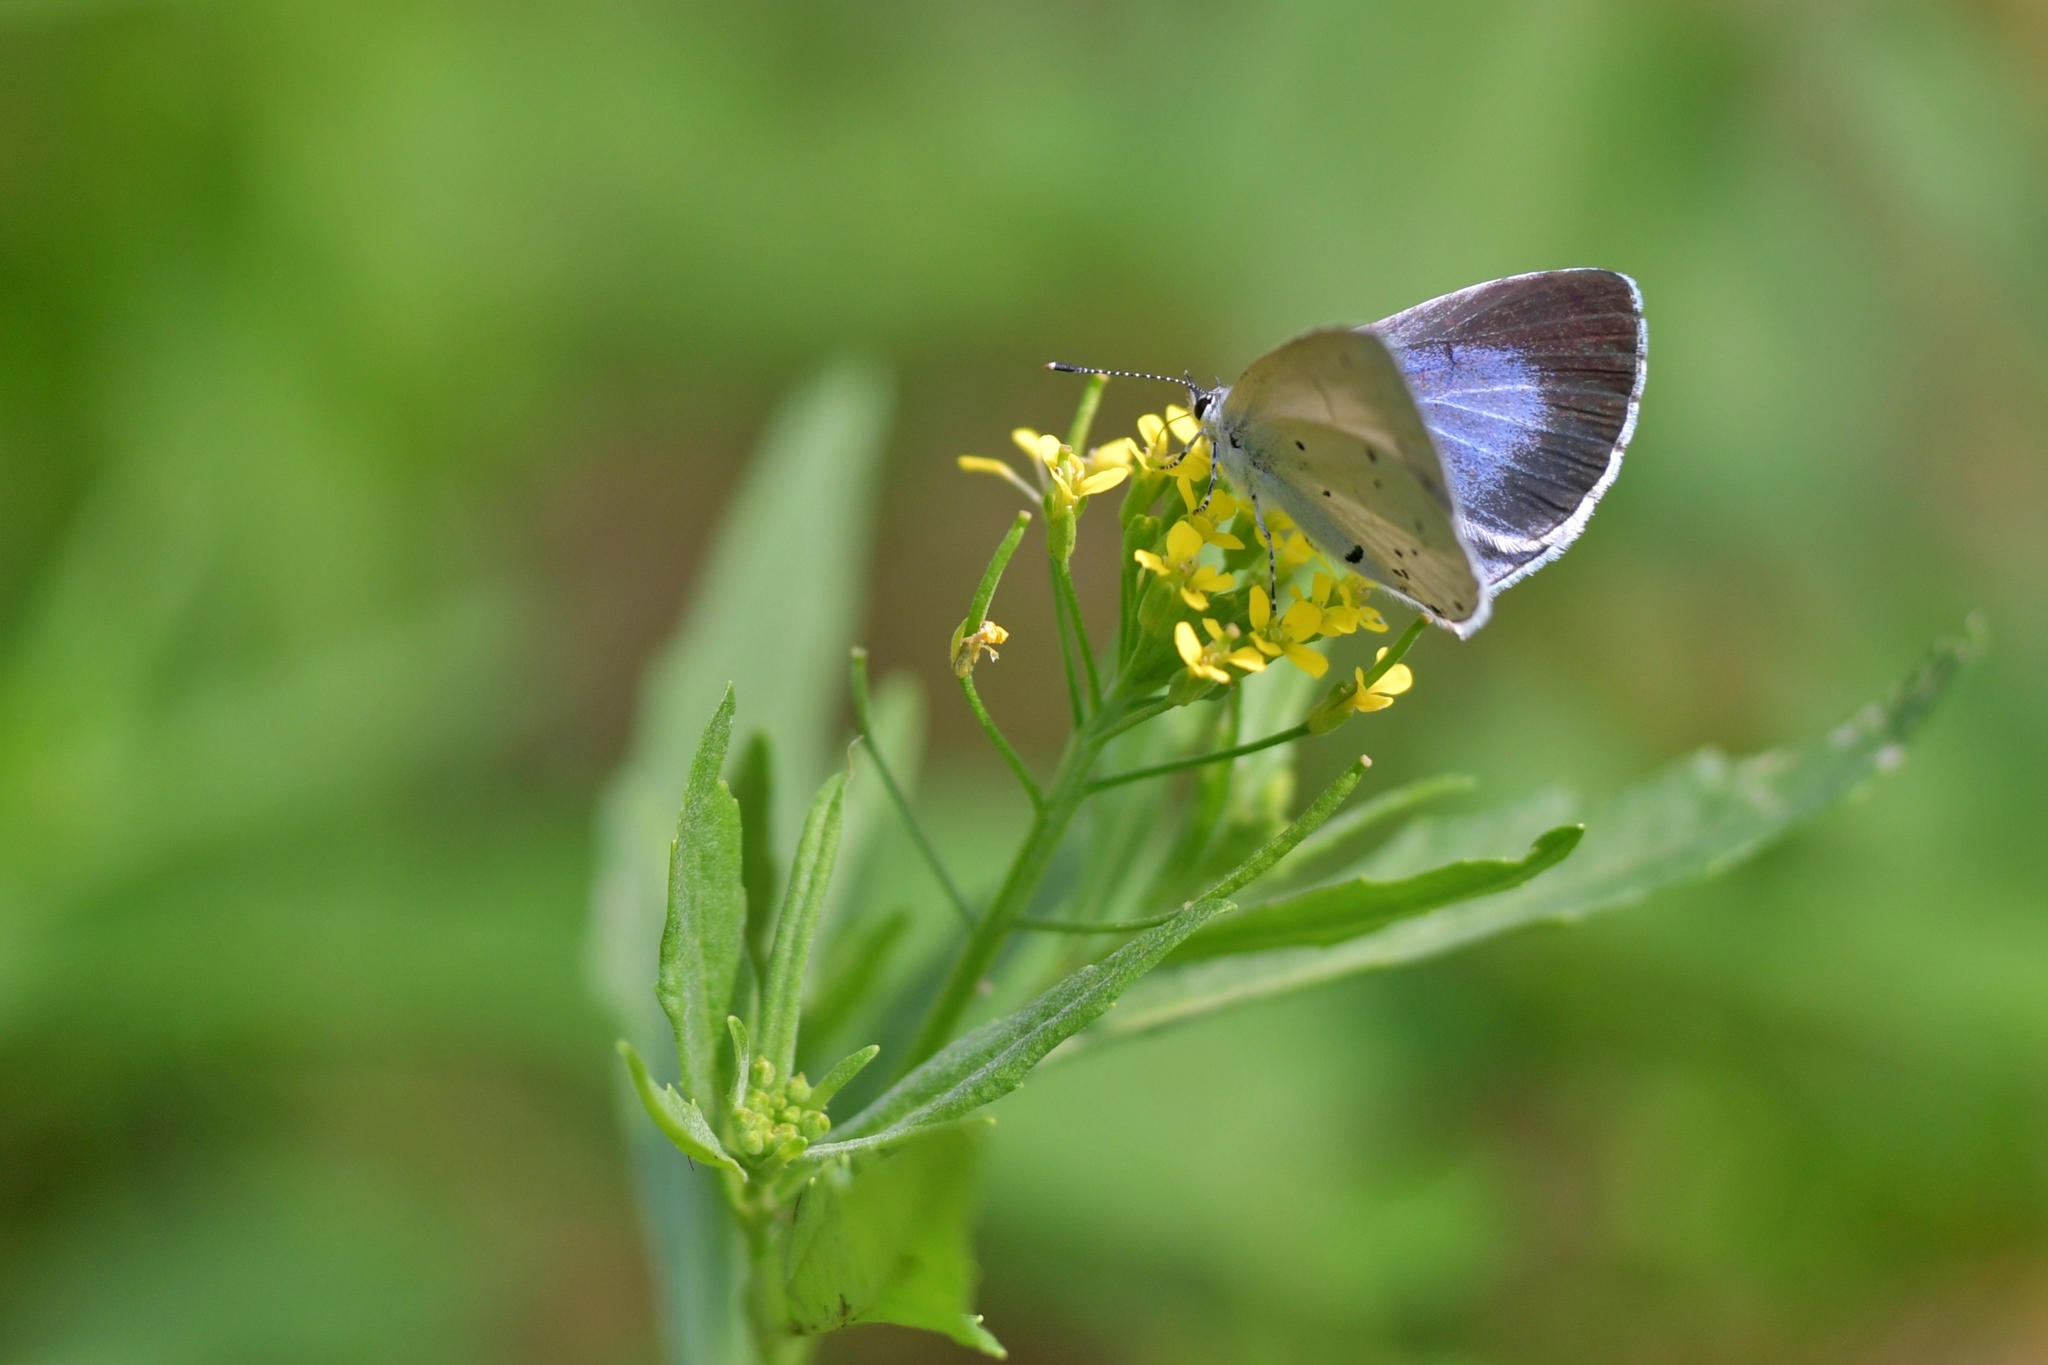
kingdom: Animalia
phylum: Arthropoda
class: Insecta
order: Lepidoptera
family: Lycaenidae
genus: Celastrina
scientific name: Celastrina argiolus
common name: Holly blue
